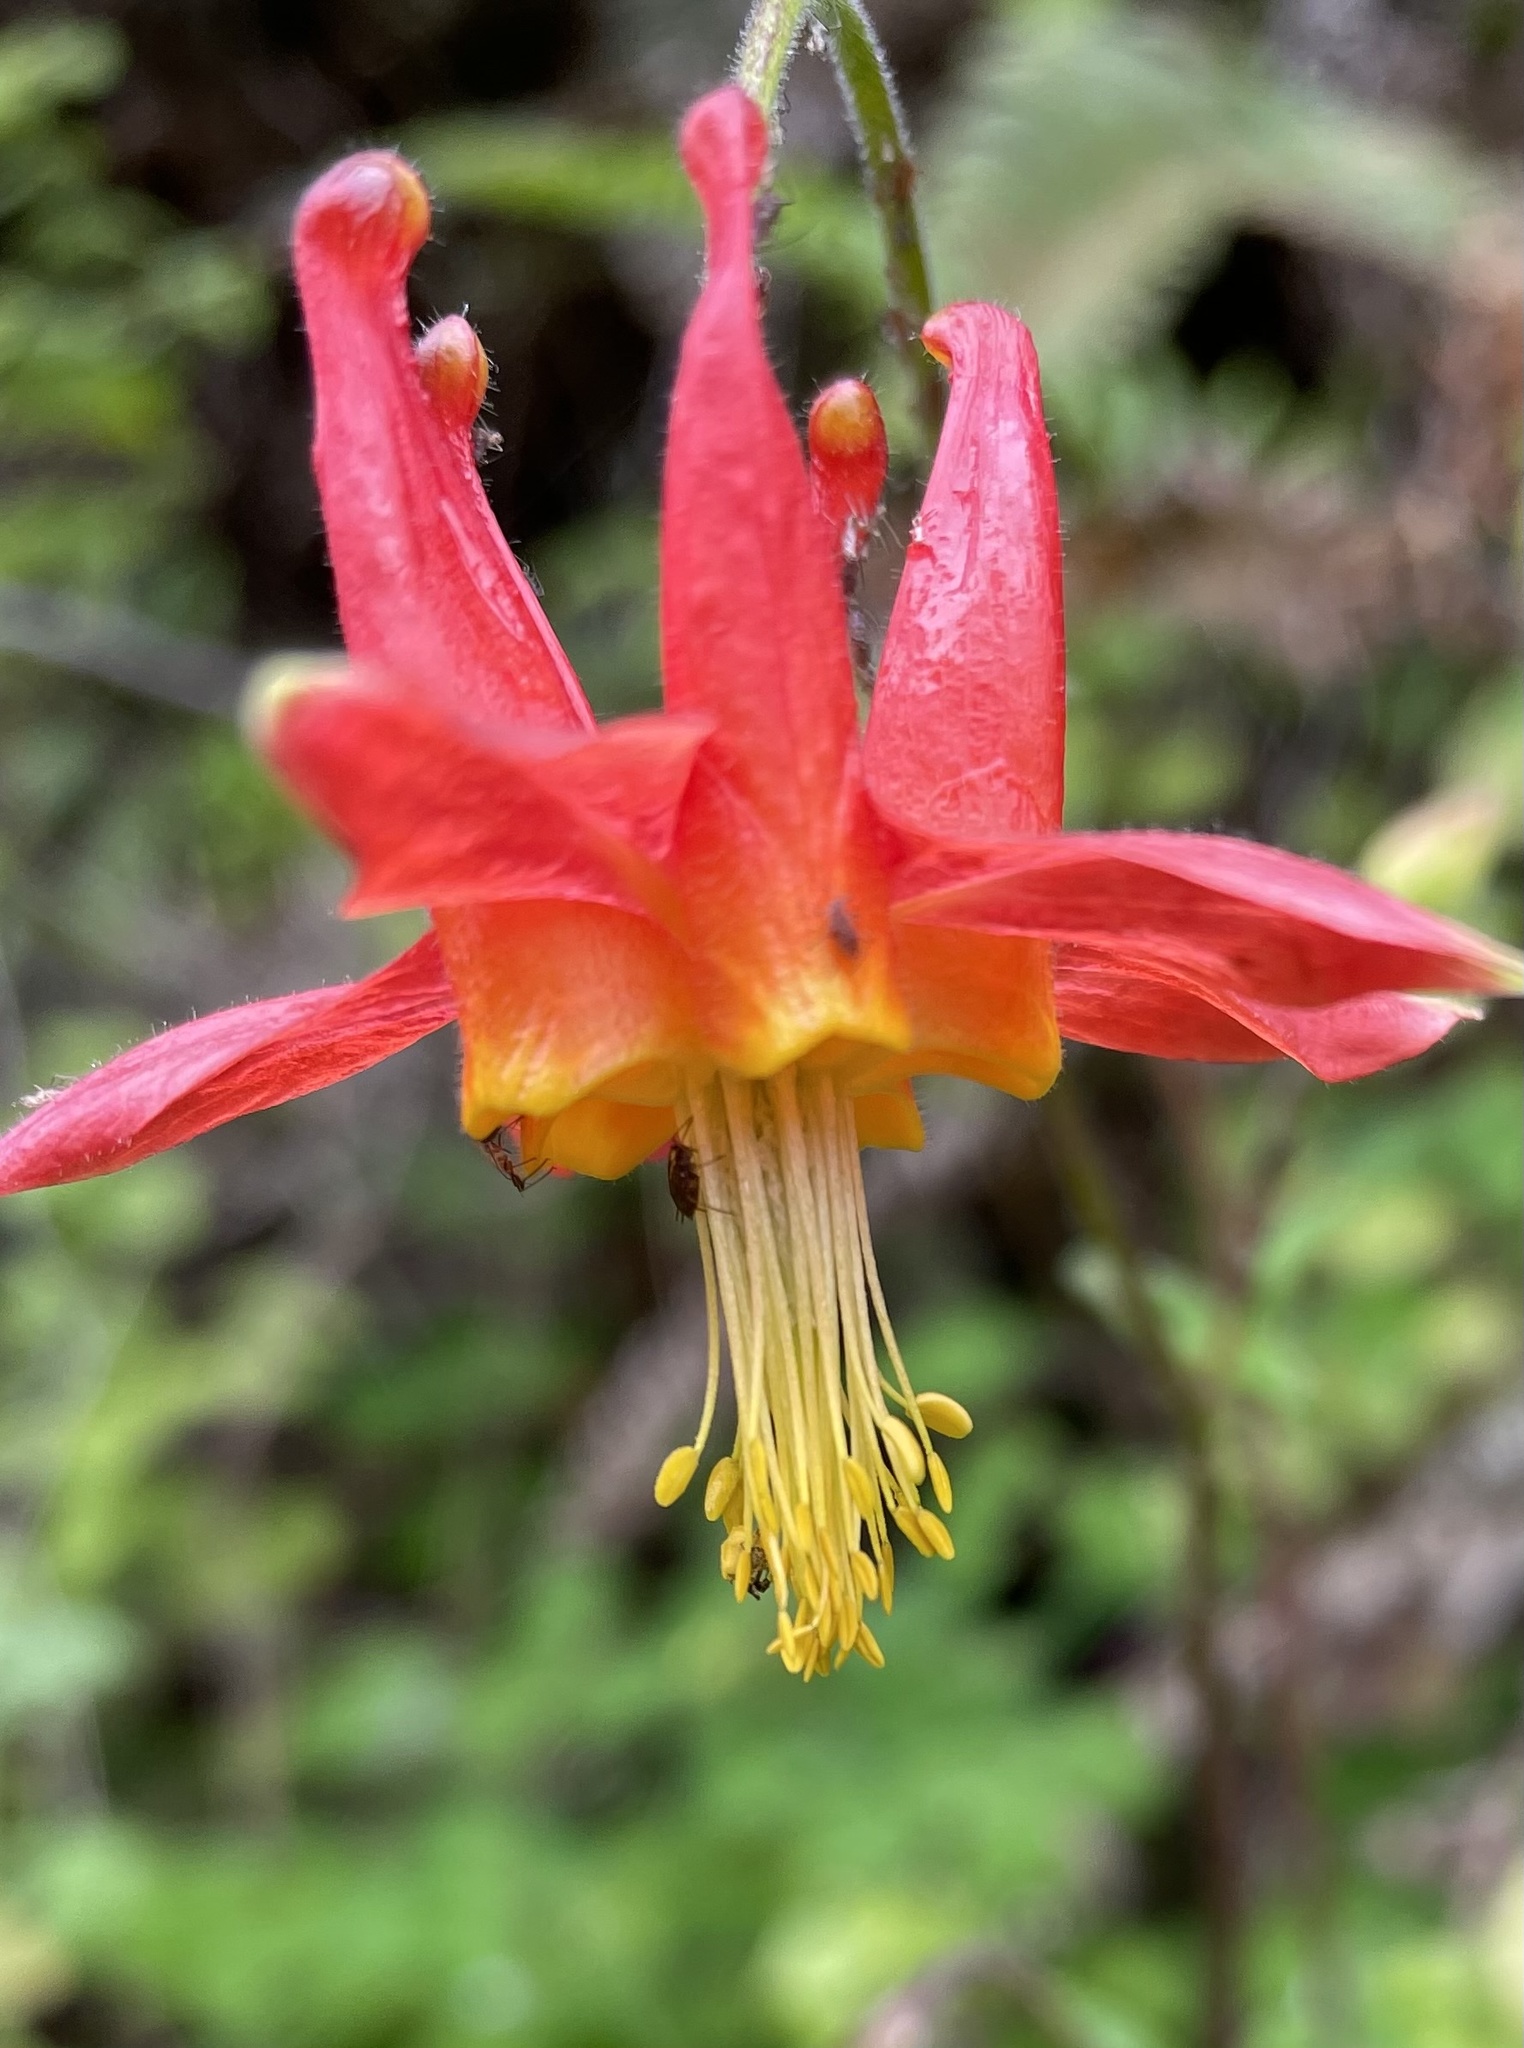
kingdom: Plantae
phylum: Tracheophyta
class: Magnoliopsida
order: Ranunculales
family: Ranunculaceae
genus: Aquilegia
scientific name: Aquilegia formosa
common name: Sitka columbine
